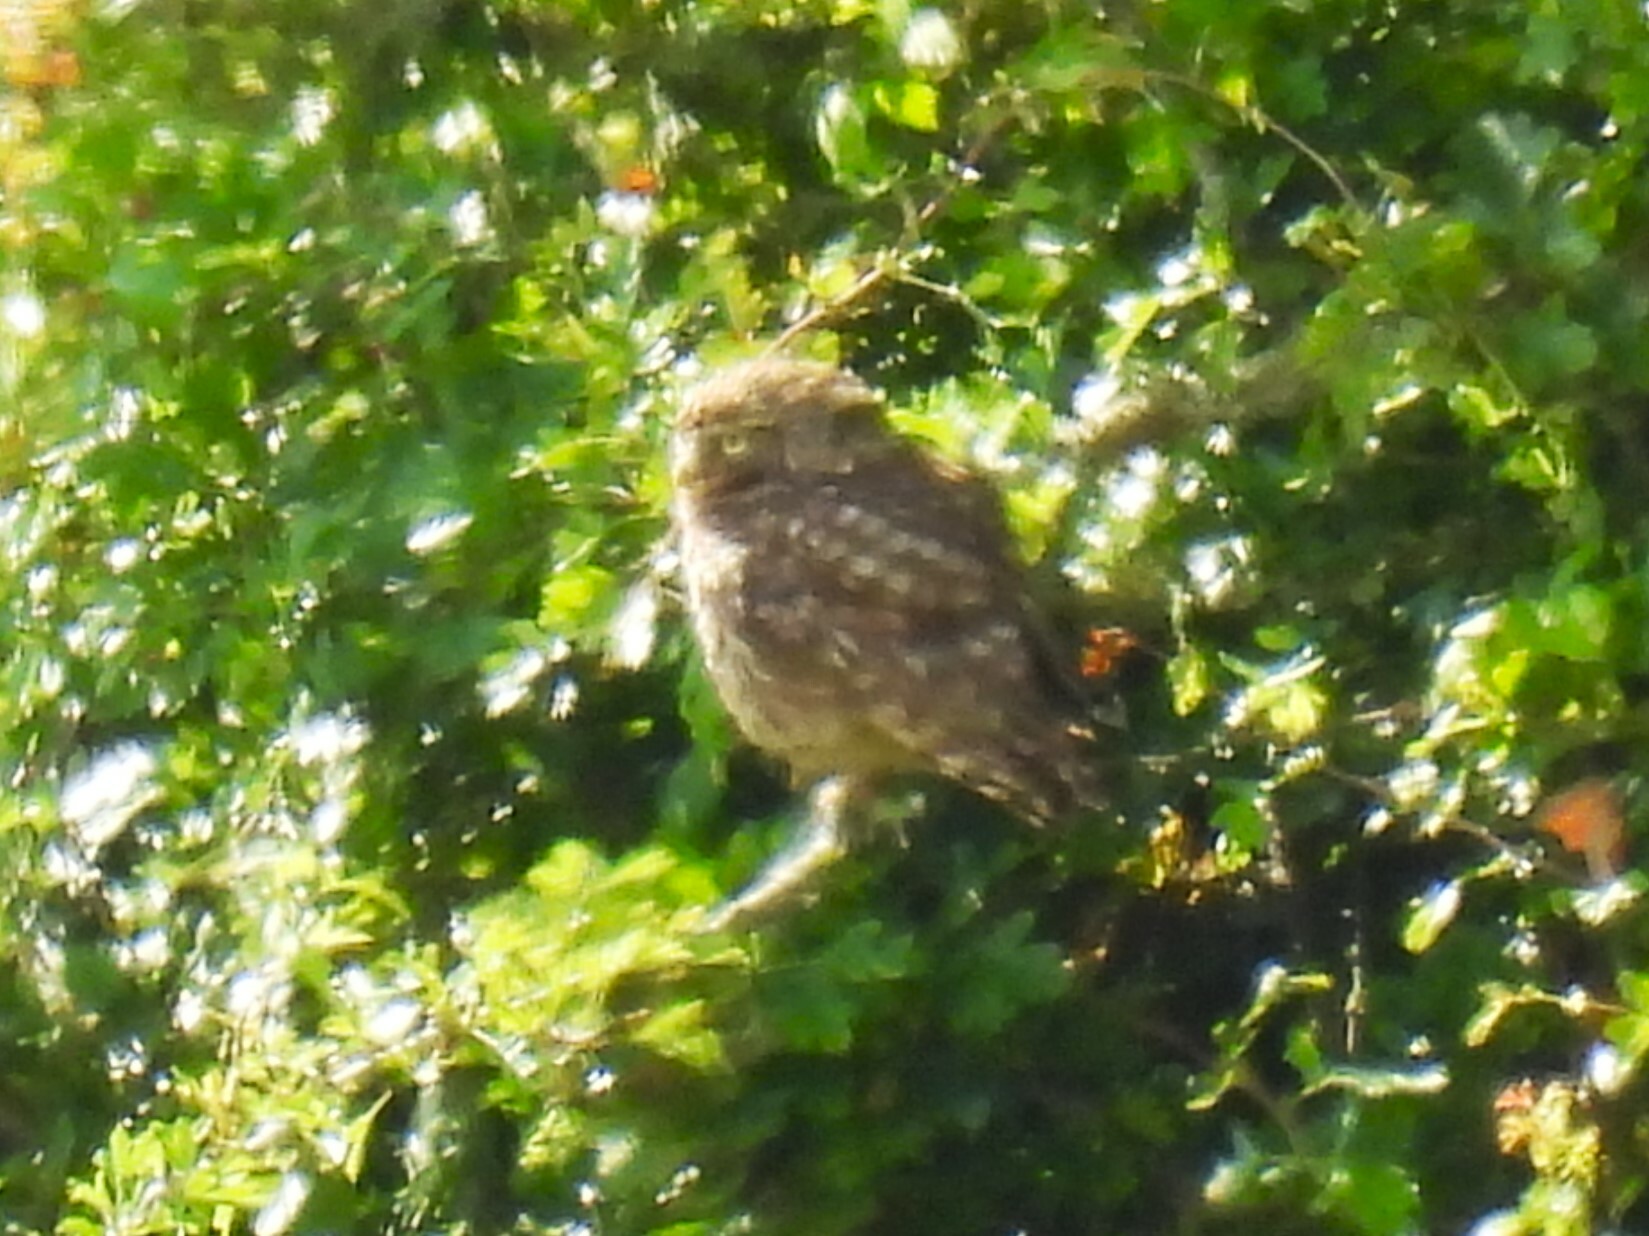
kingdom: Animalia
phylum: Chordata
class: Aves
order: Strigiformes
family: Strigidae
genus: Athene
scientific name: Athene noctua
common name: Little owl
